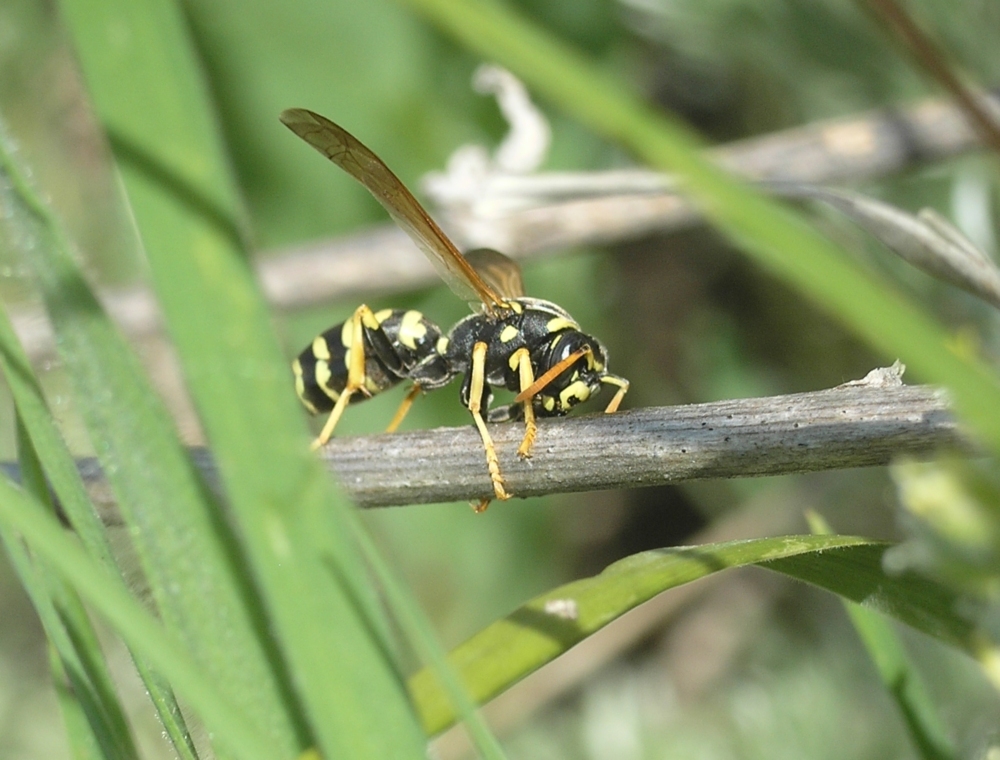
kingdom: Animalia
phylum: Arthropoda
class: Insecta
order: Hymenoptera
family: Eumenidae
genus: Polistes
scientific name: Polistes gallicus
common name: Paper wasp
